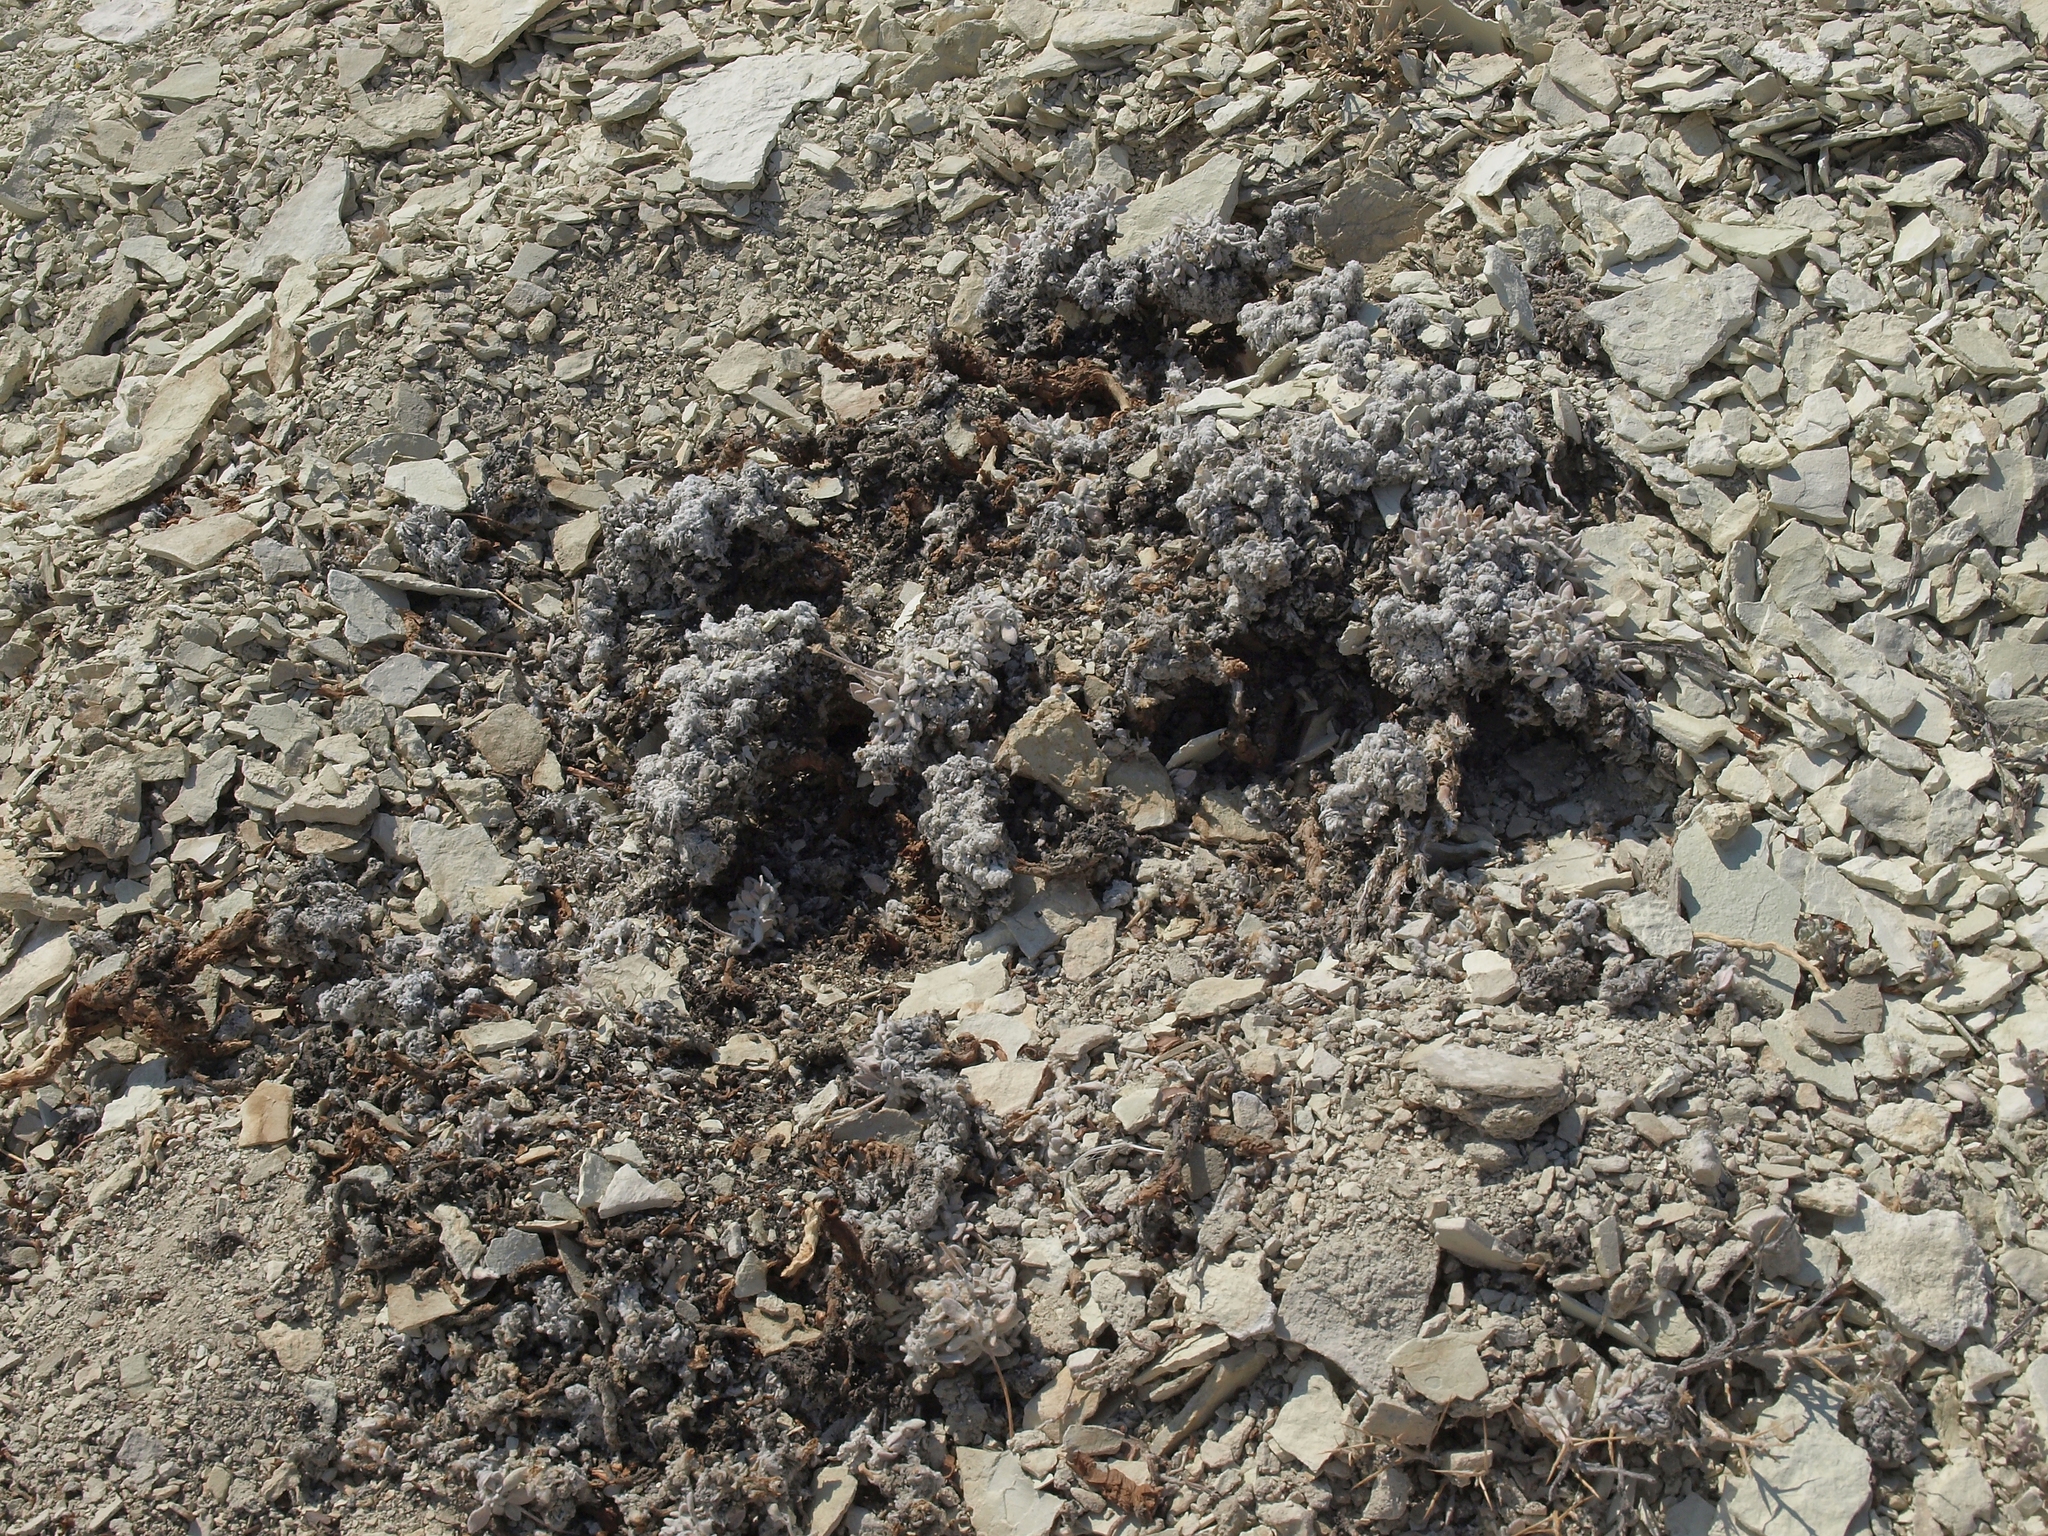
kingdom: Plantae
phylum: Tracheophyta
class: Magnoliopsida
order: Caryophyllales
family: Polygonaceae
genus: Eriogonum
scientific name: Eriogonum tiehmii
